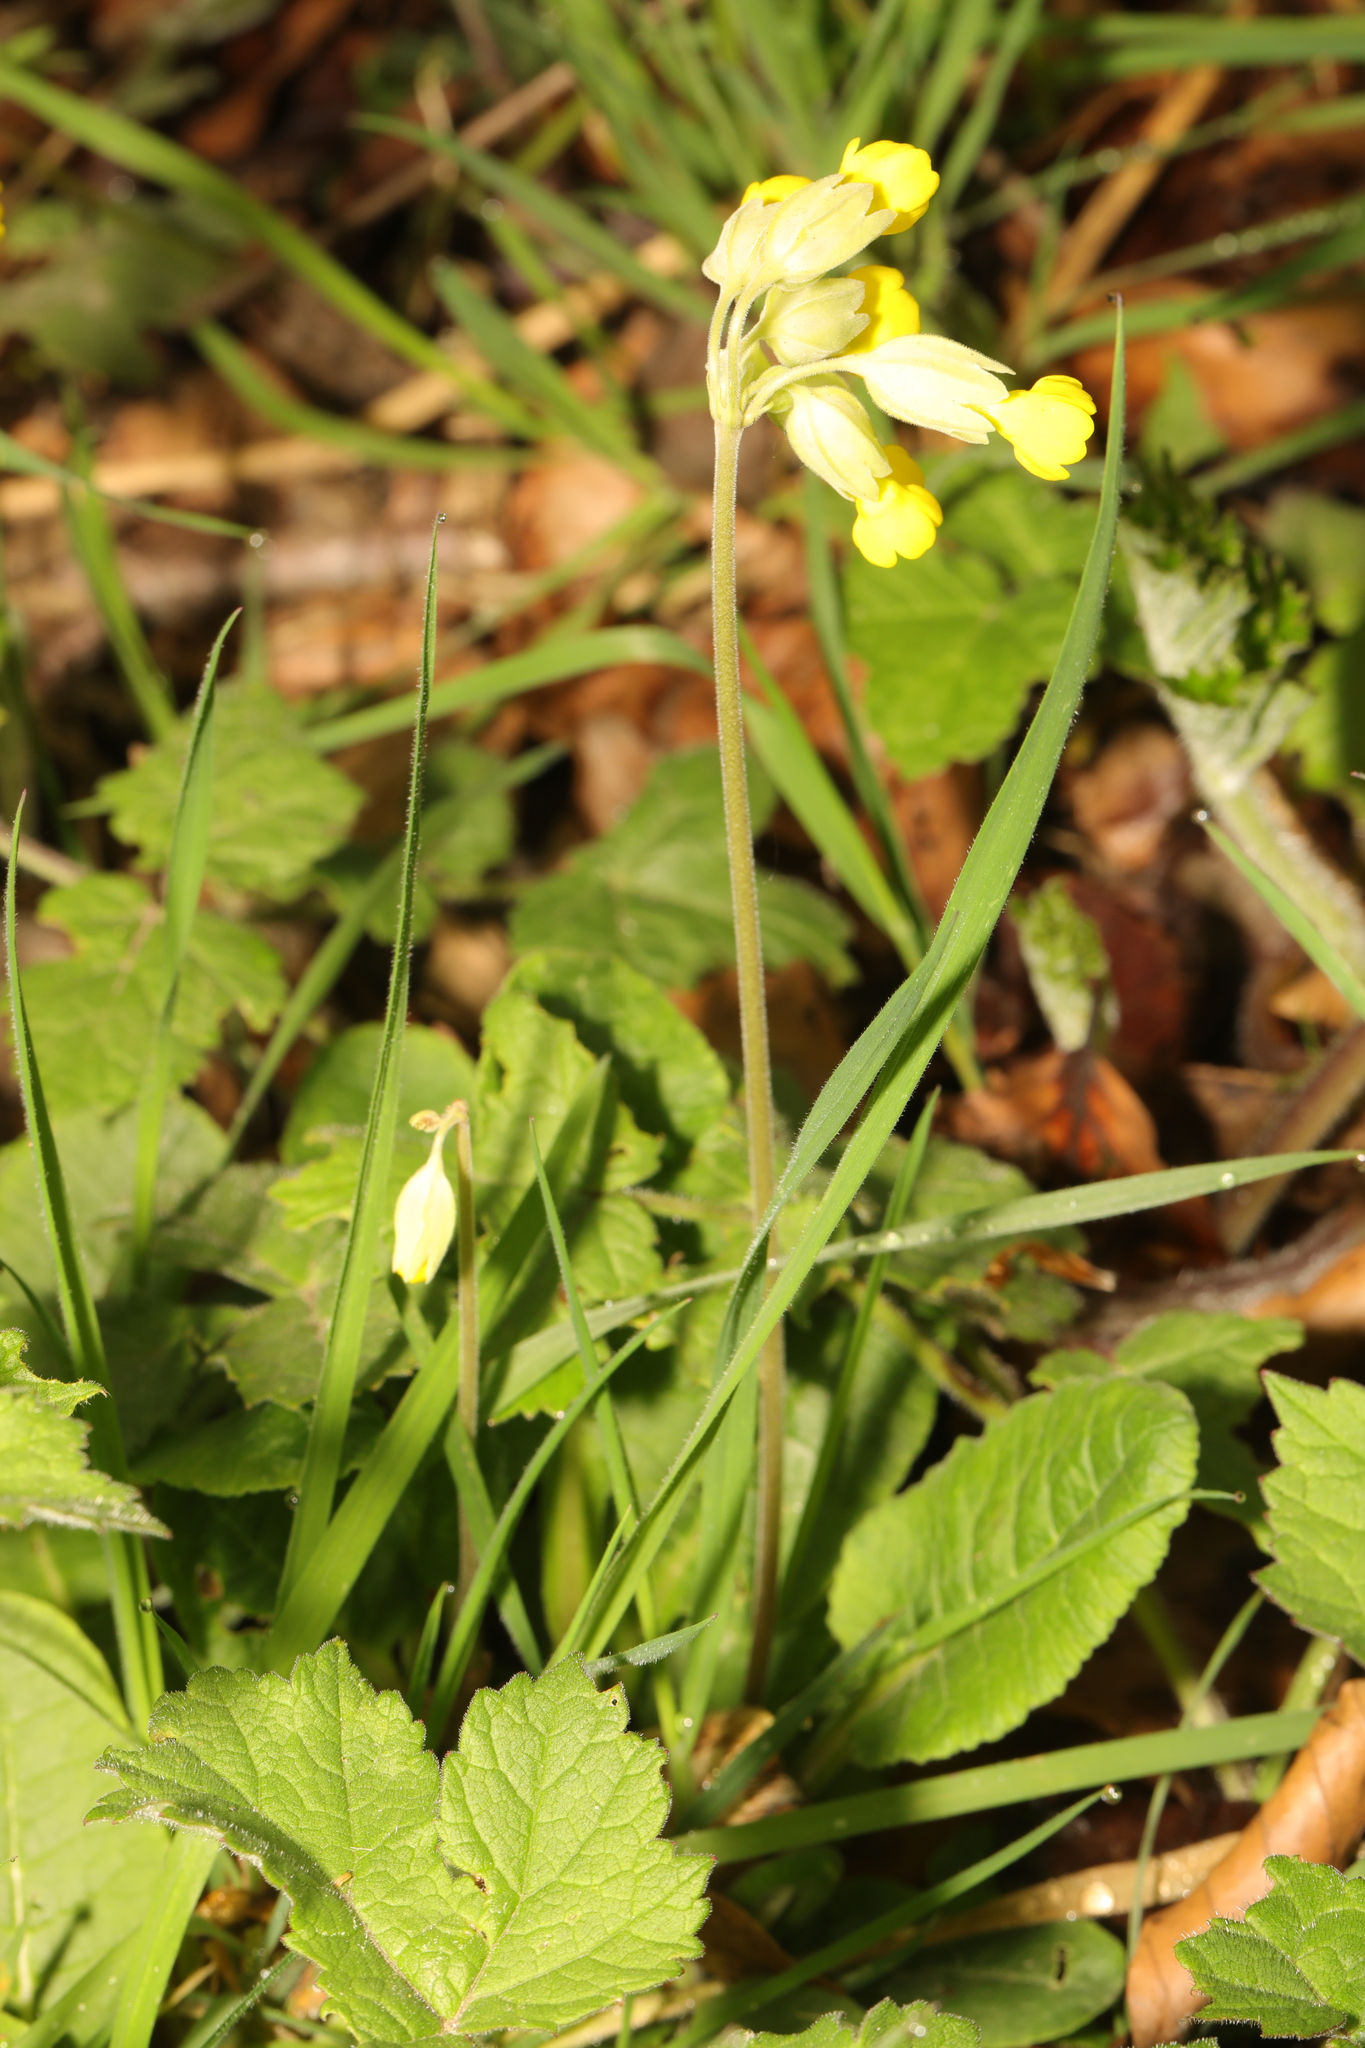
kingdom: Plantae
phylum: Tracheophyta
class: Magnoliopsida
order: Ericales
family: Primulaceae
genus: Primula
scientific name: Primula veris
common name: Cowslip
